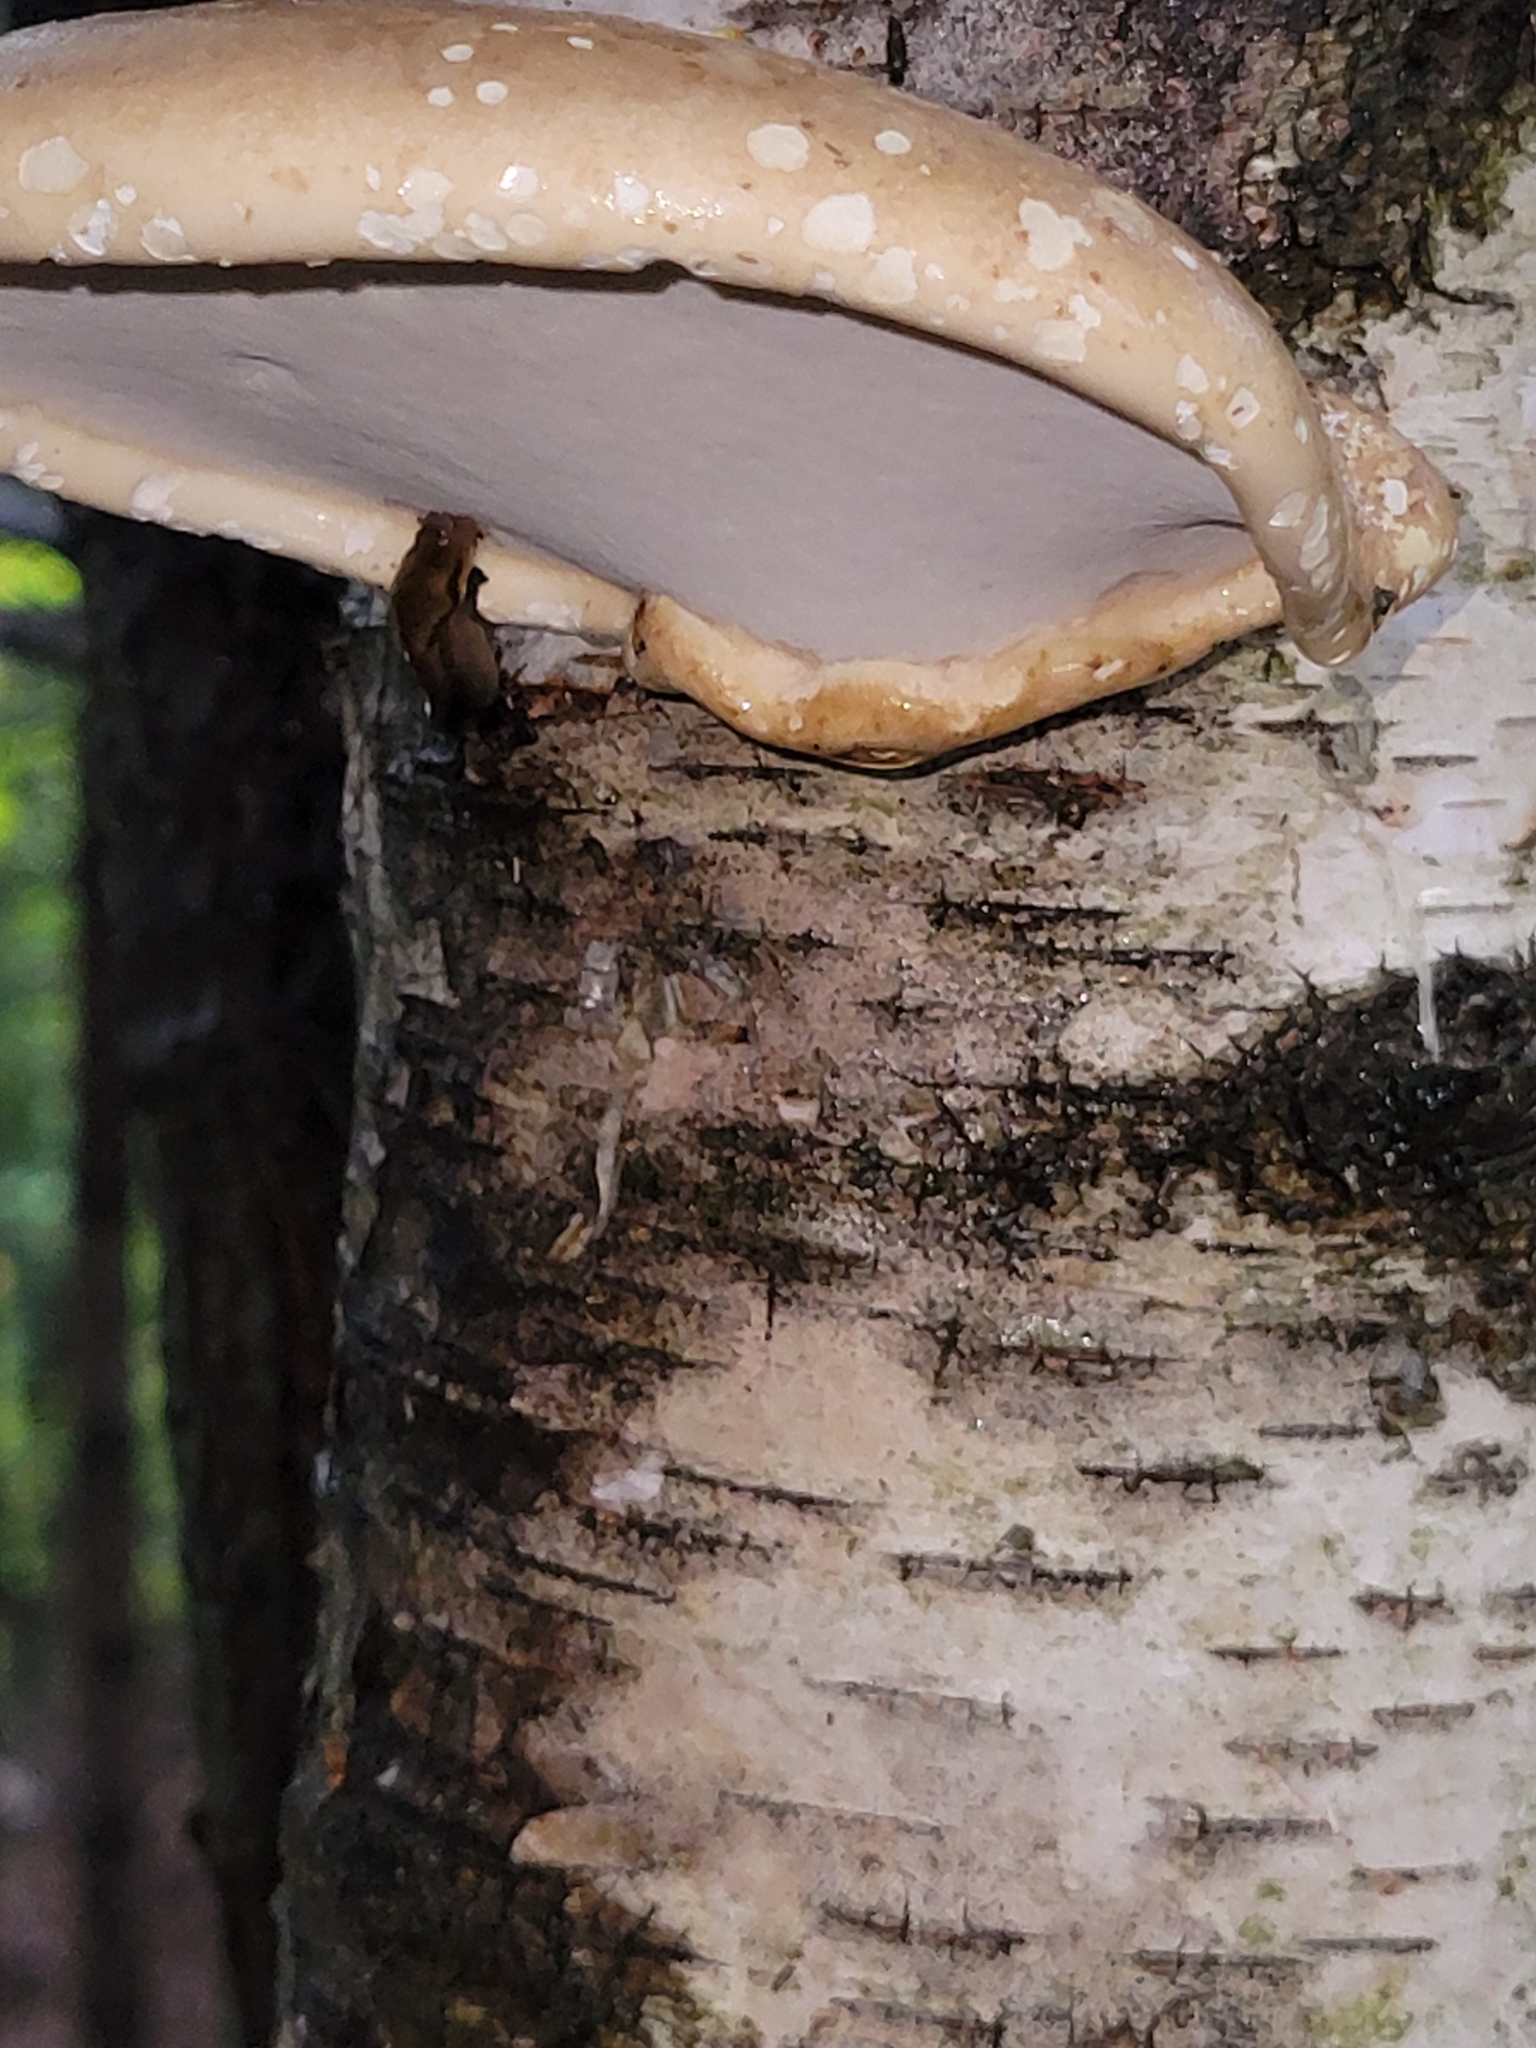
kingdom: Fungi
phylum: Basidiomycota
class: Agaricomycetes
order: Polyporales
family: Fomitopsidaceae
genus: Fomitopsis
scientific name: Fomitopsis betulina
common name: Birch polypore
